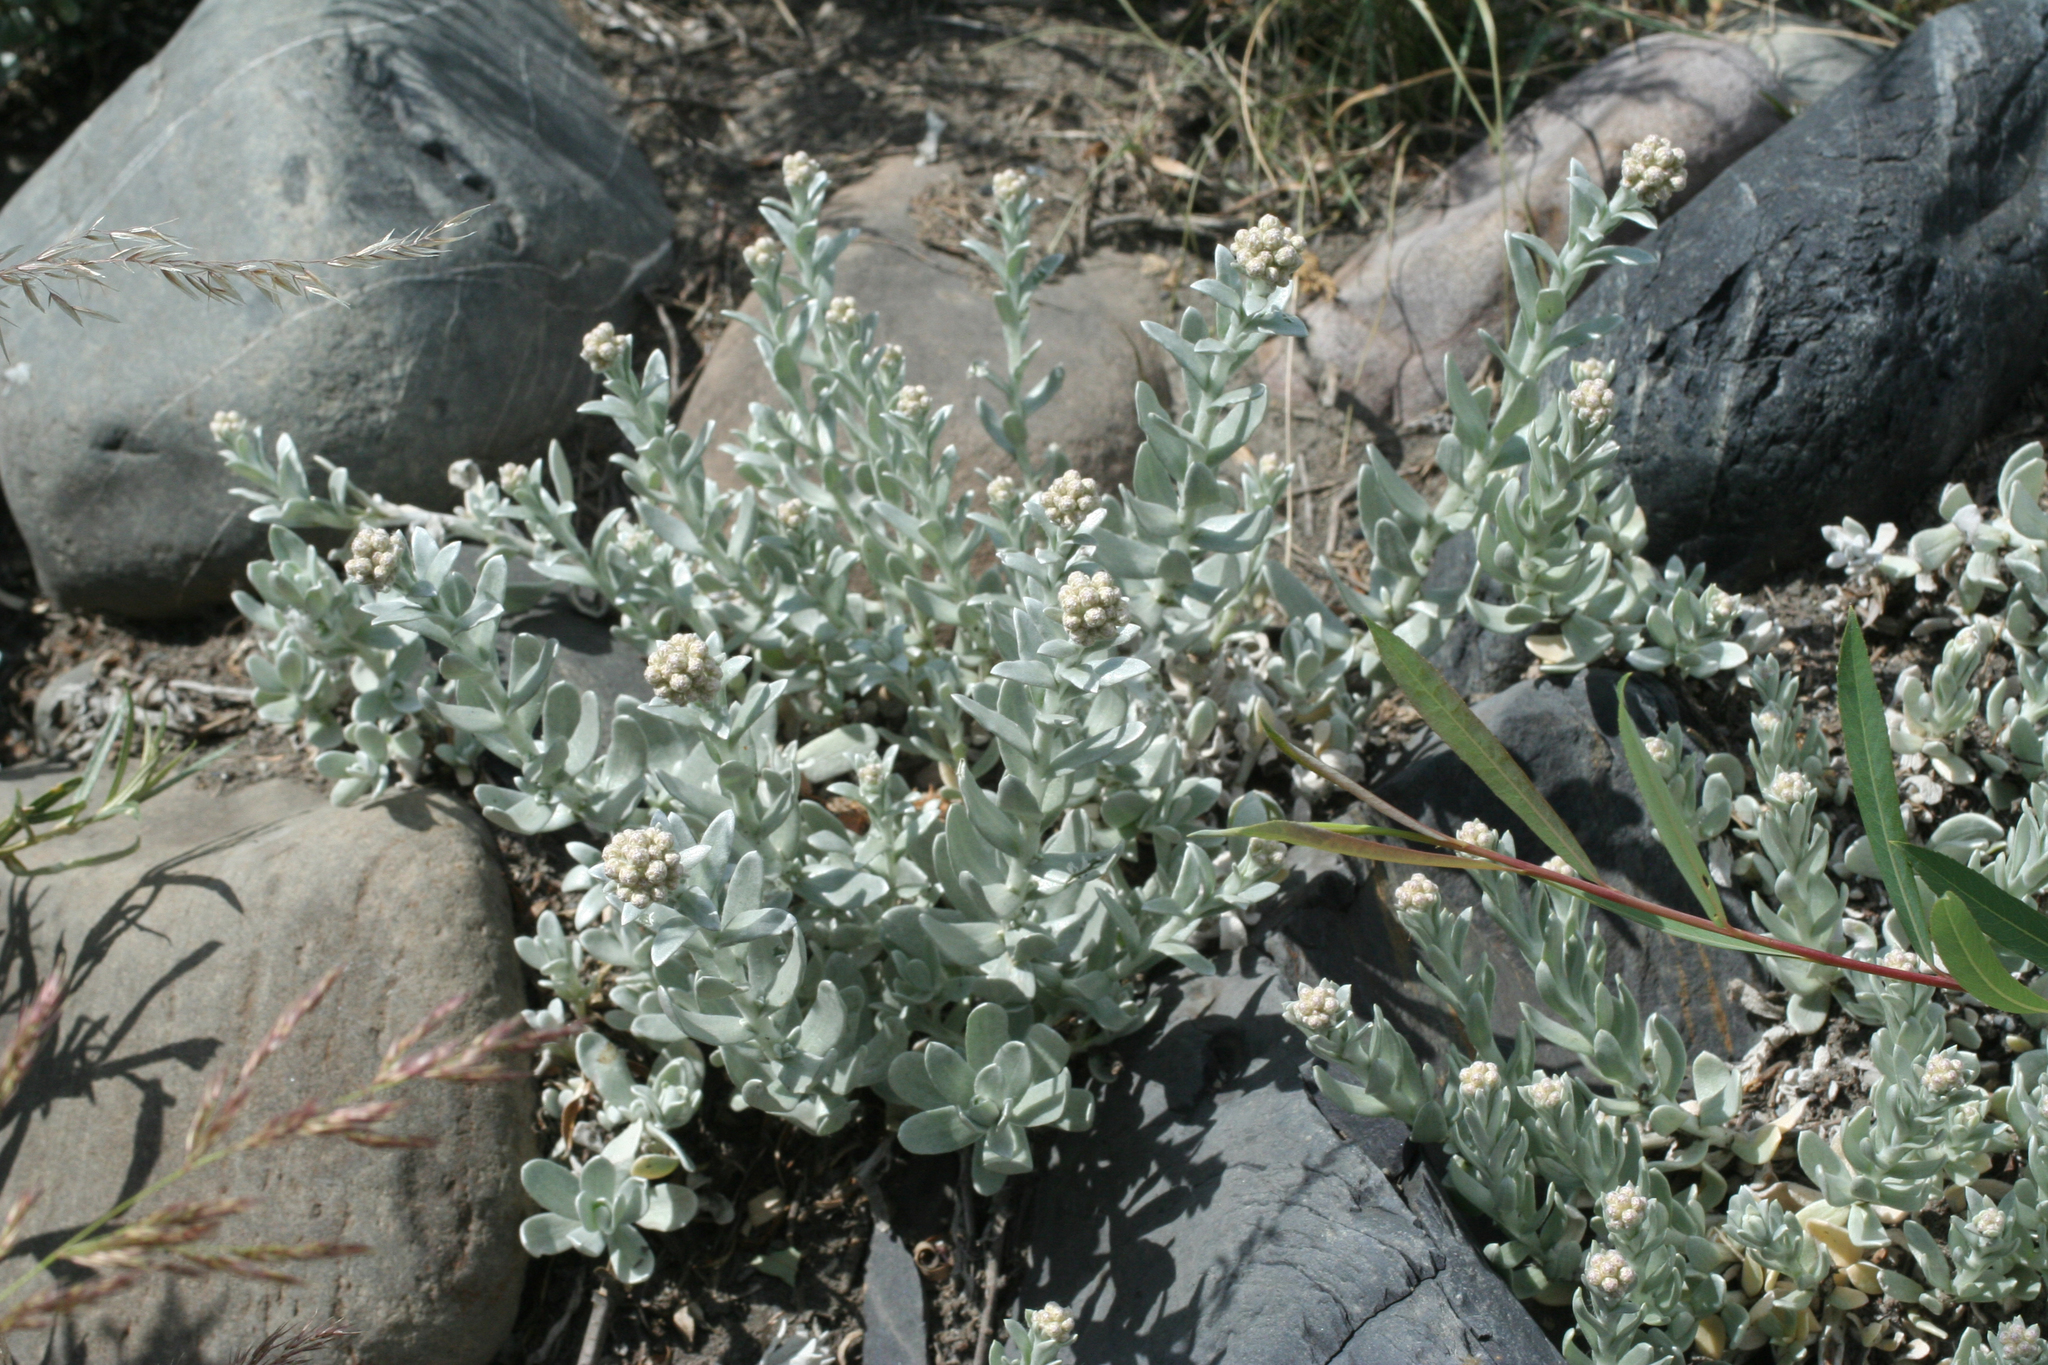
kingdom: Plantae
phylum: Tracheophyta
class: Magnoliopsida
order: Asterales
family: Asteraceae
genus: Cladochaeta
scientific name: Cladochaeta candidissima
